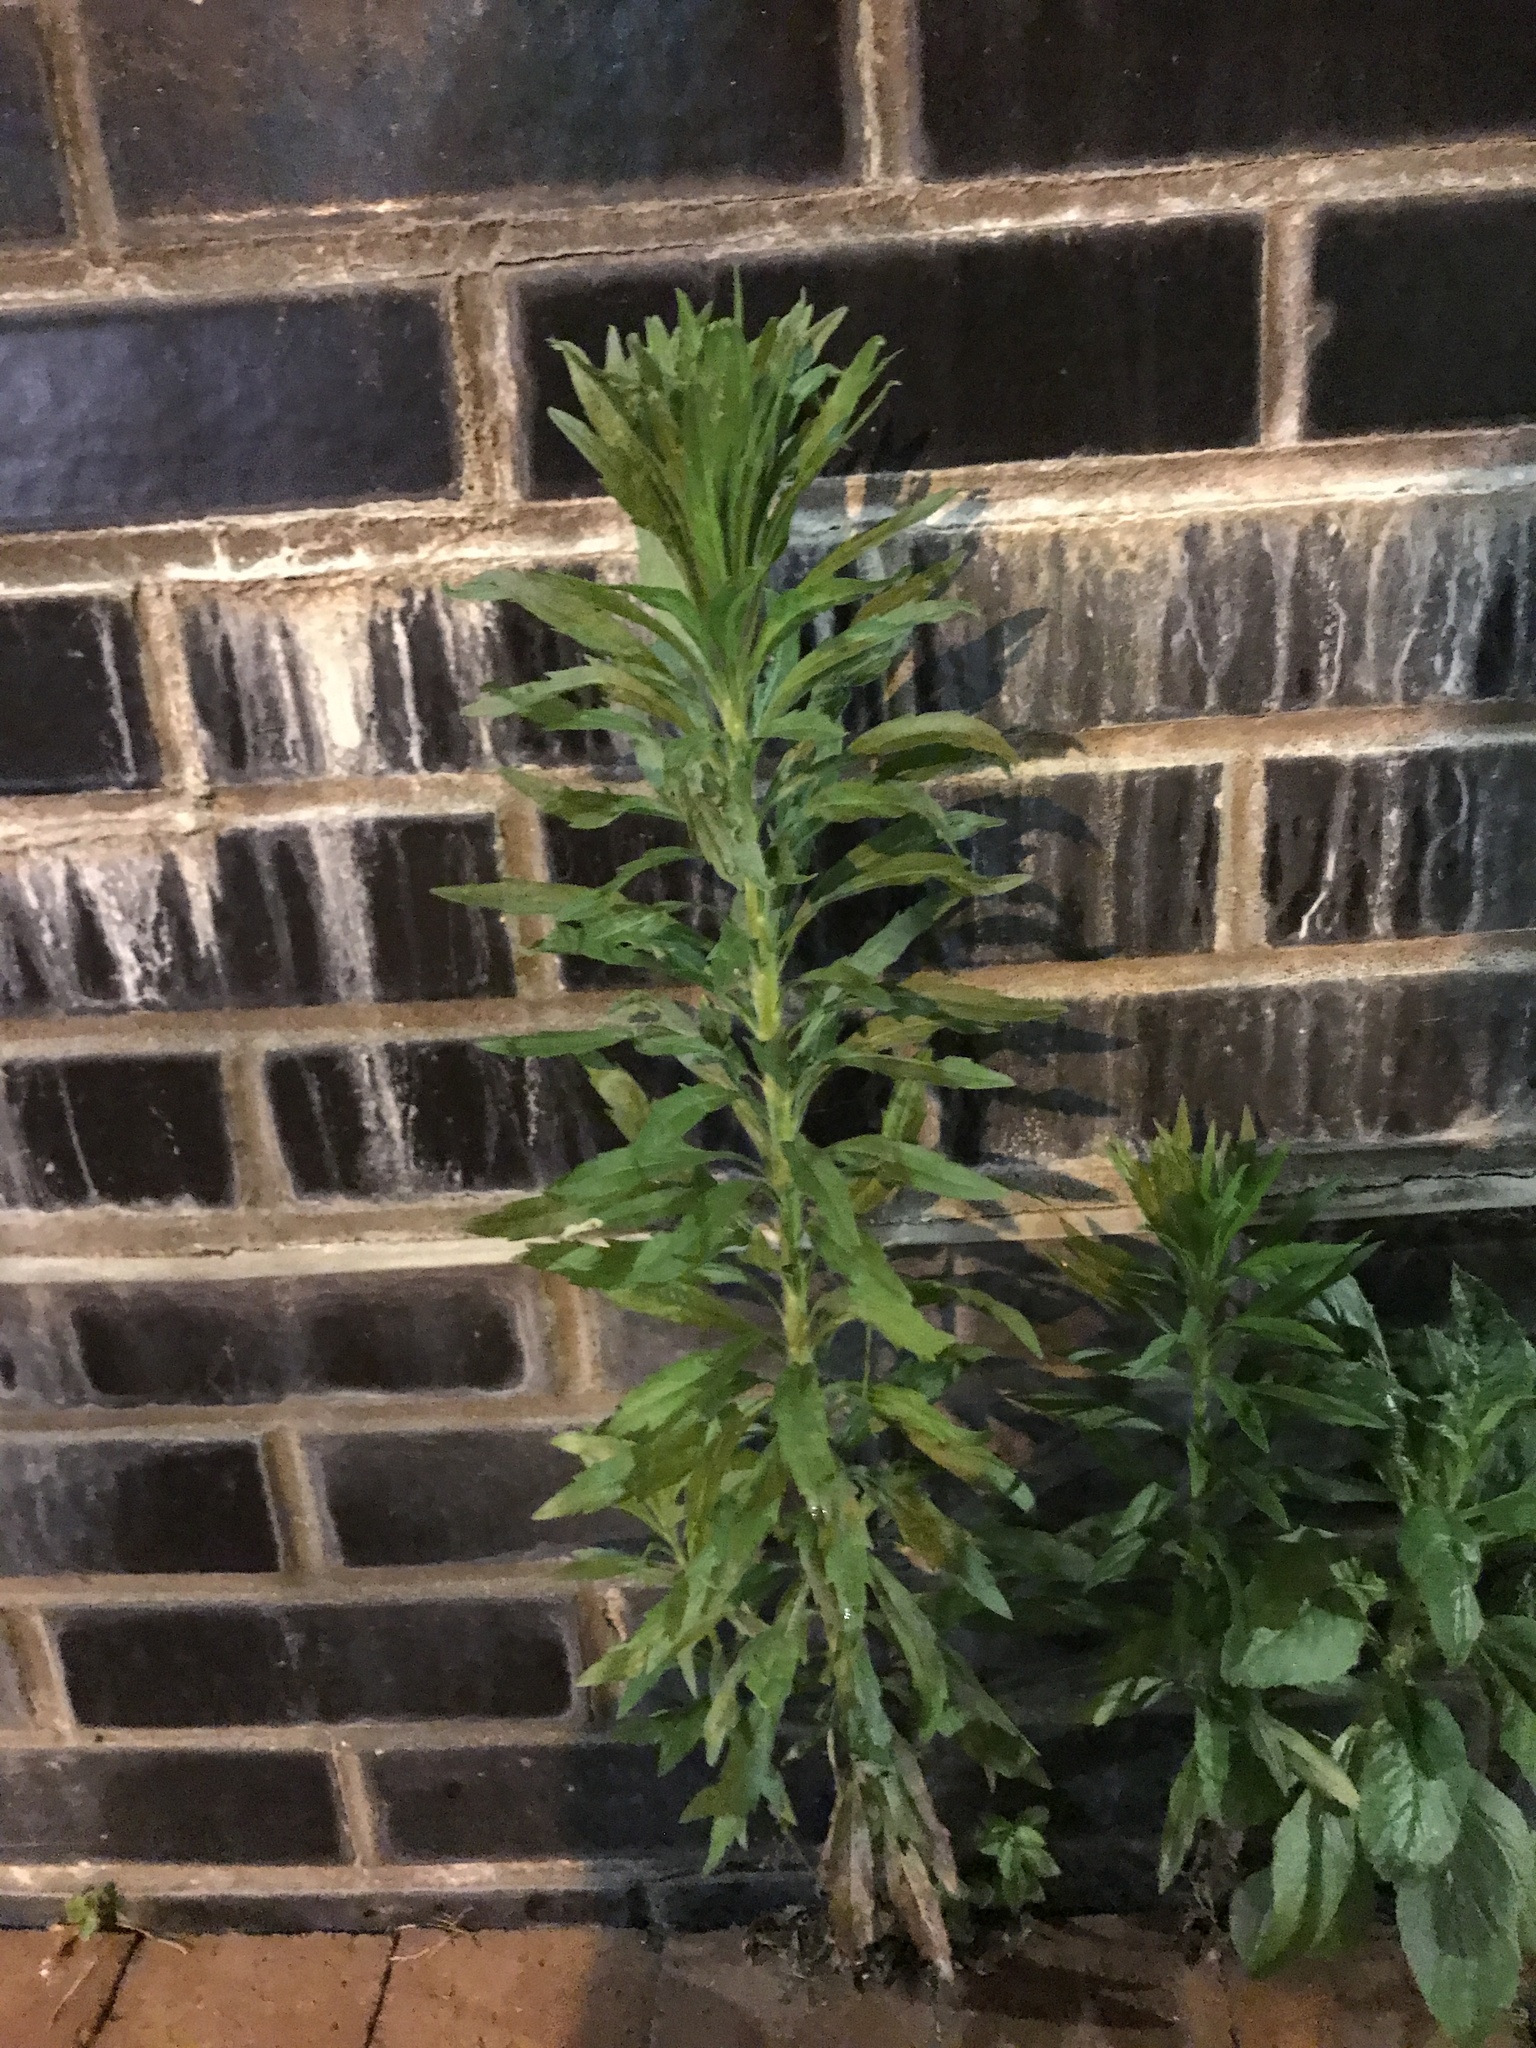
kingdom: Plantae
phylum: Tracheophyta
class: Magnoliopsida
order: Asterales
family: Asteraceae
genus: Erigeron
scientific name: Erigeron canadensis
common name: Canadian fleabane
